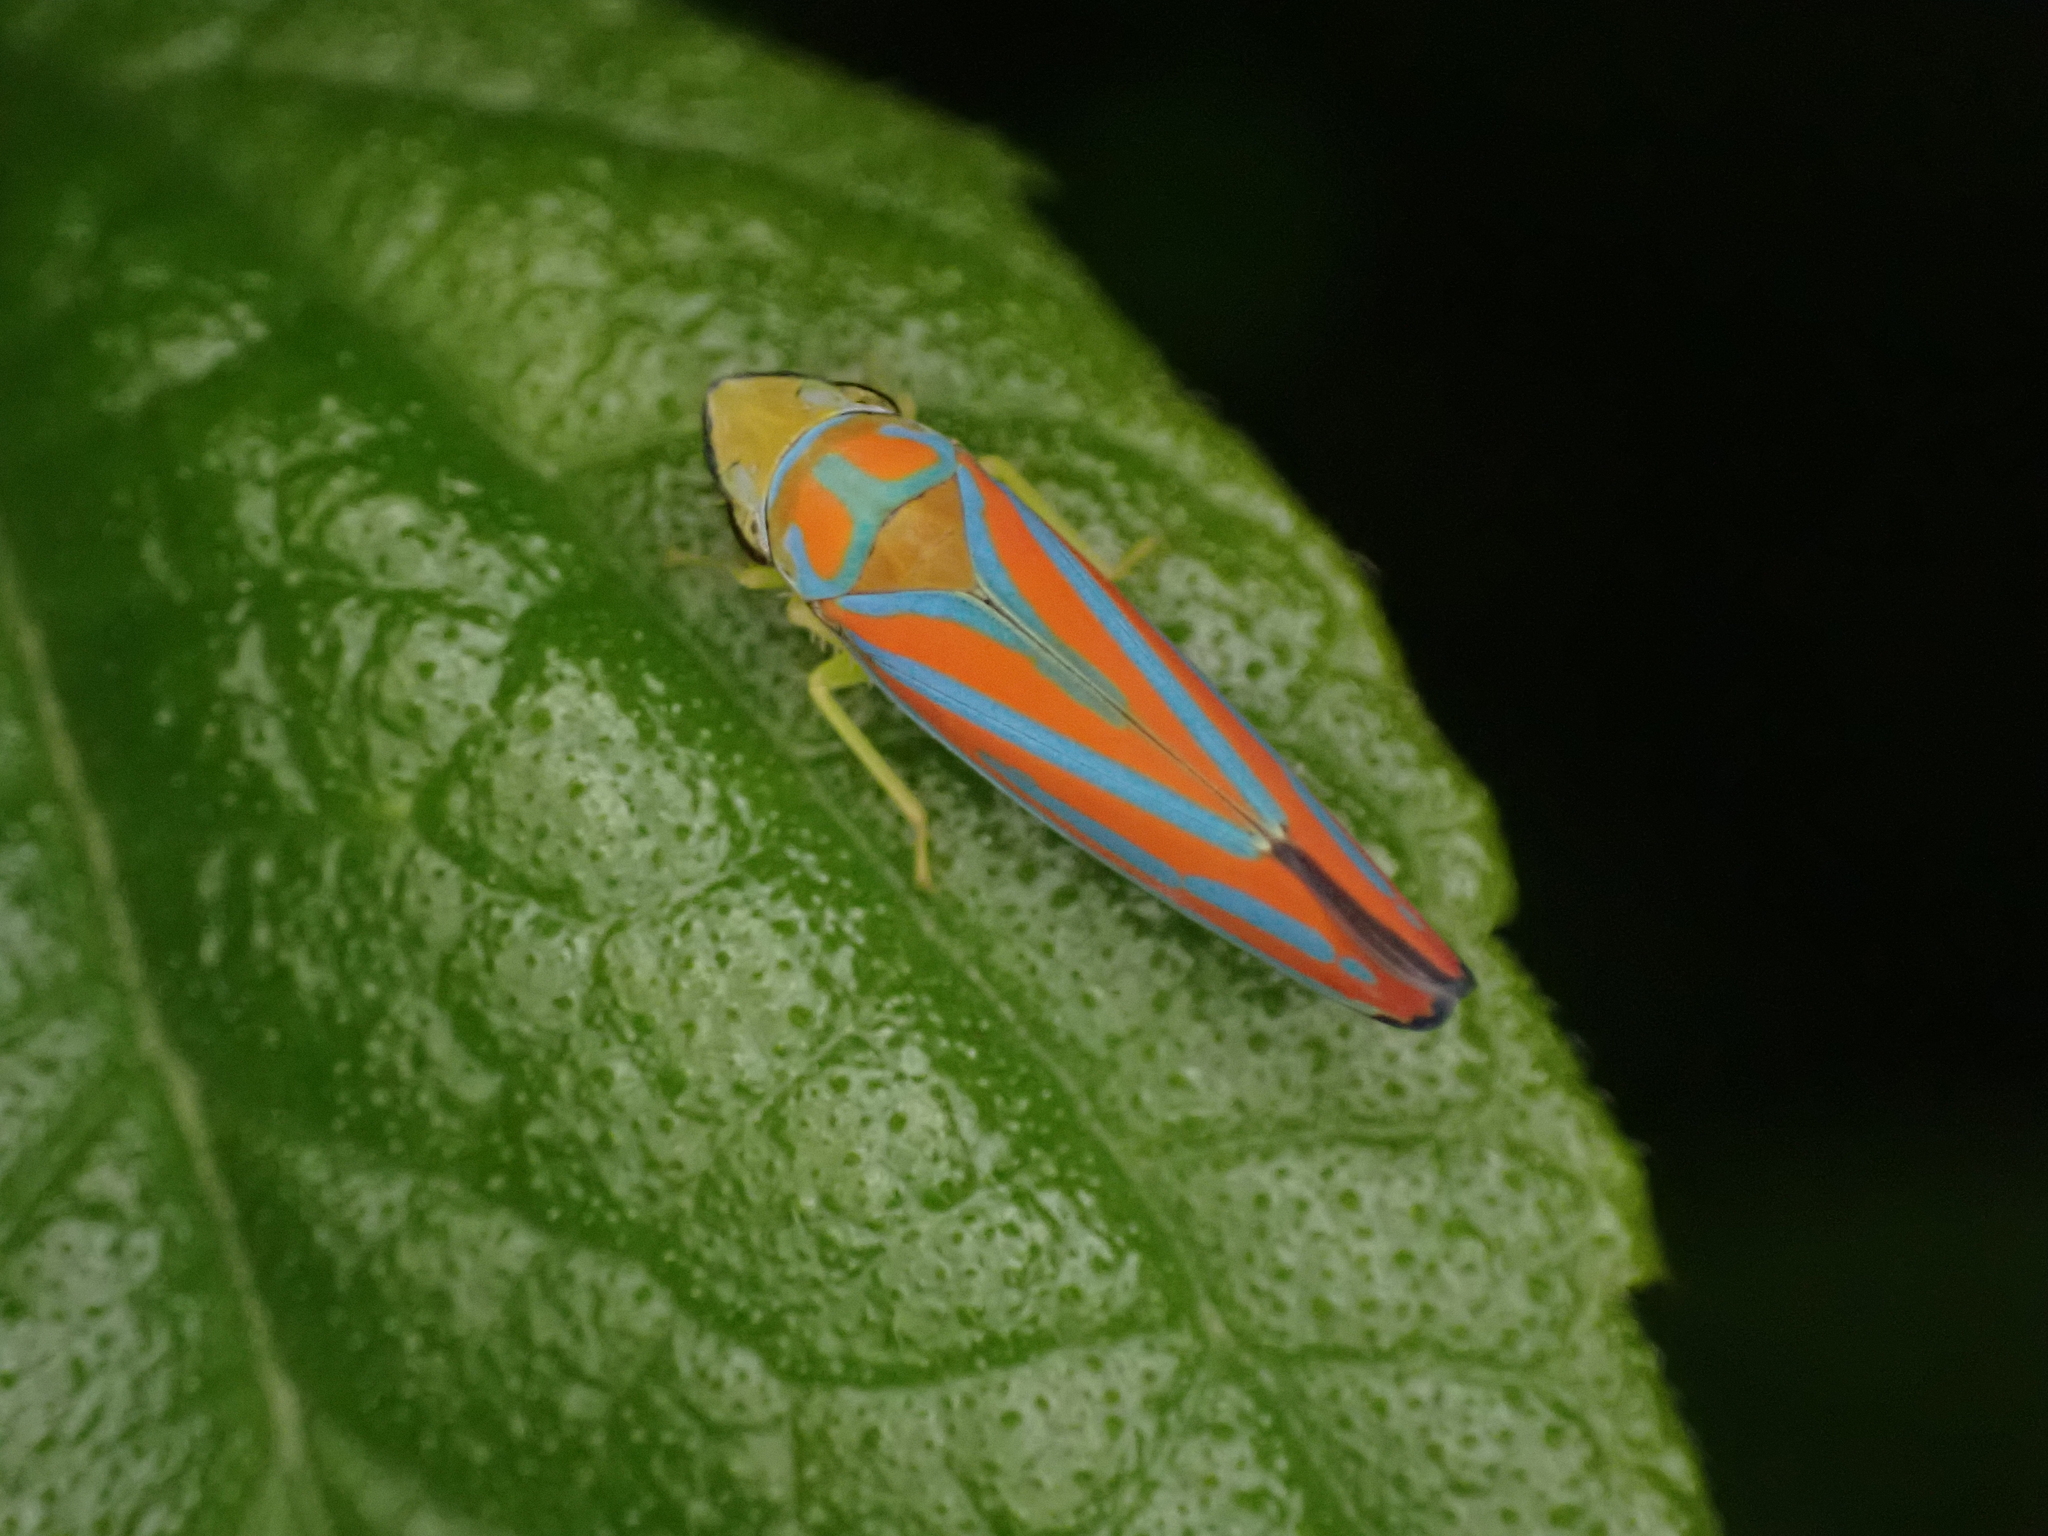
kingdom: Animalia
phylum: Arthropoda
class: Insecta
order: Hemiptera
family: Cicadellidae
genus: Graphocephala
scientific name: Graphocephala coccinea
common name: Candy-striped leafhopper
